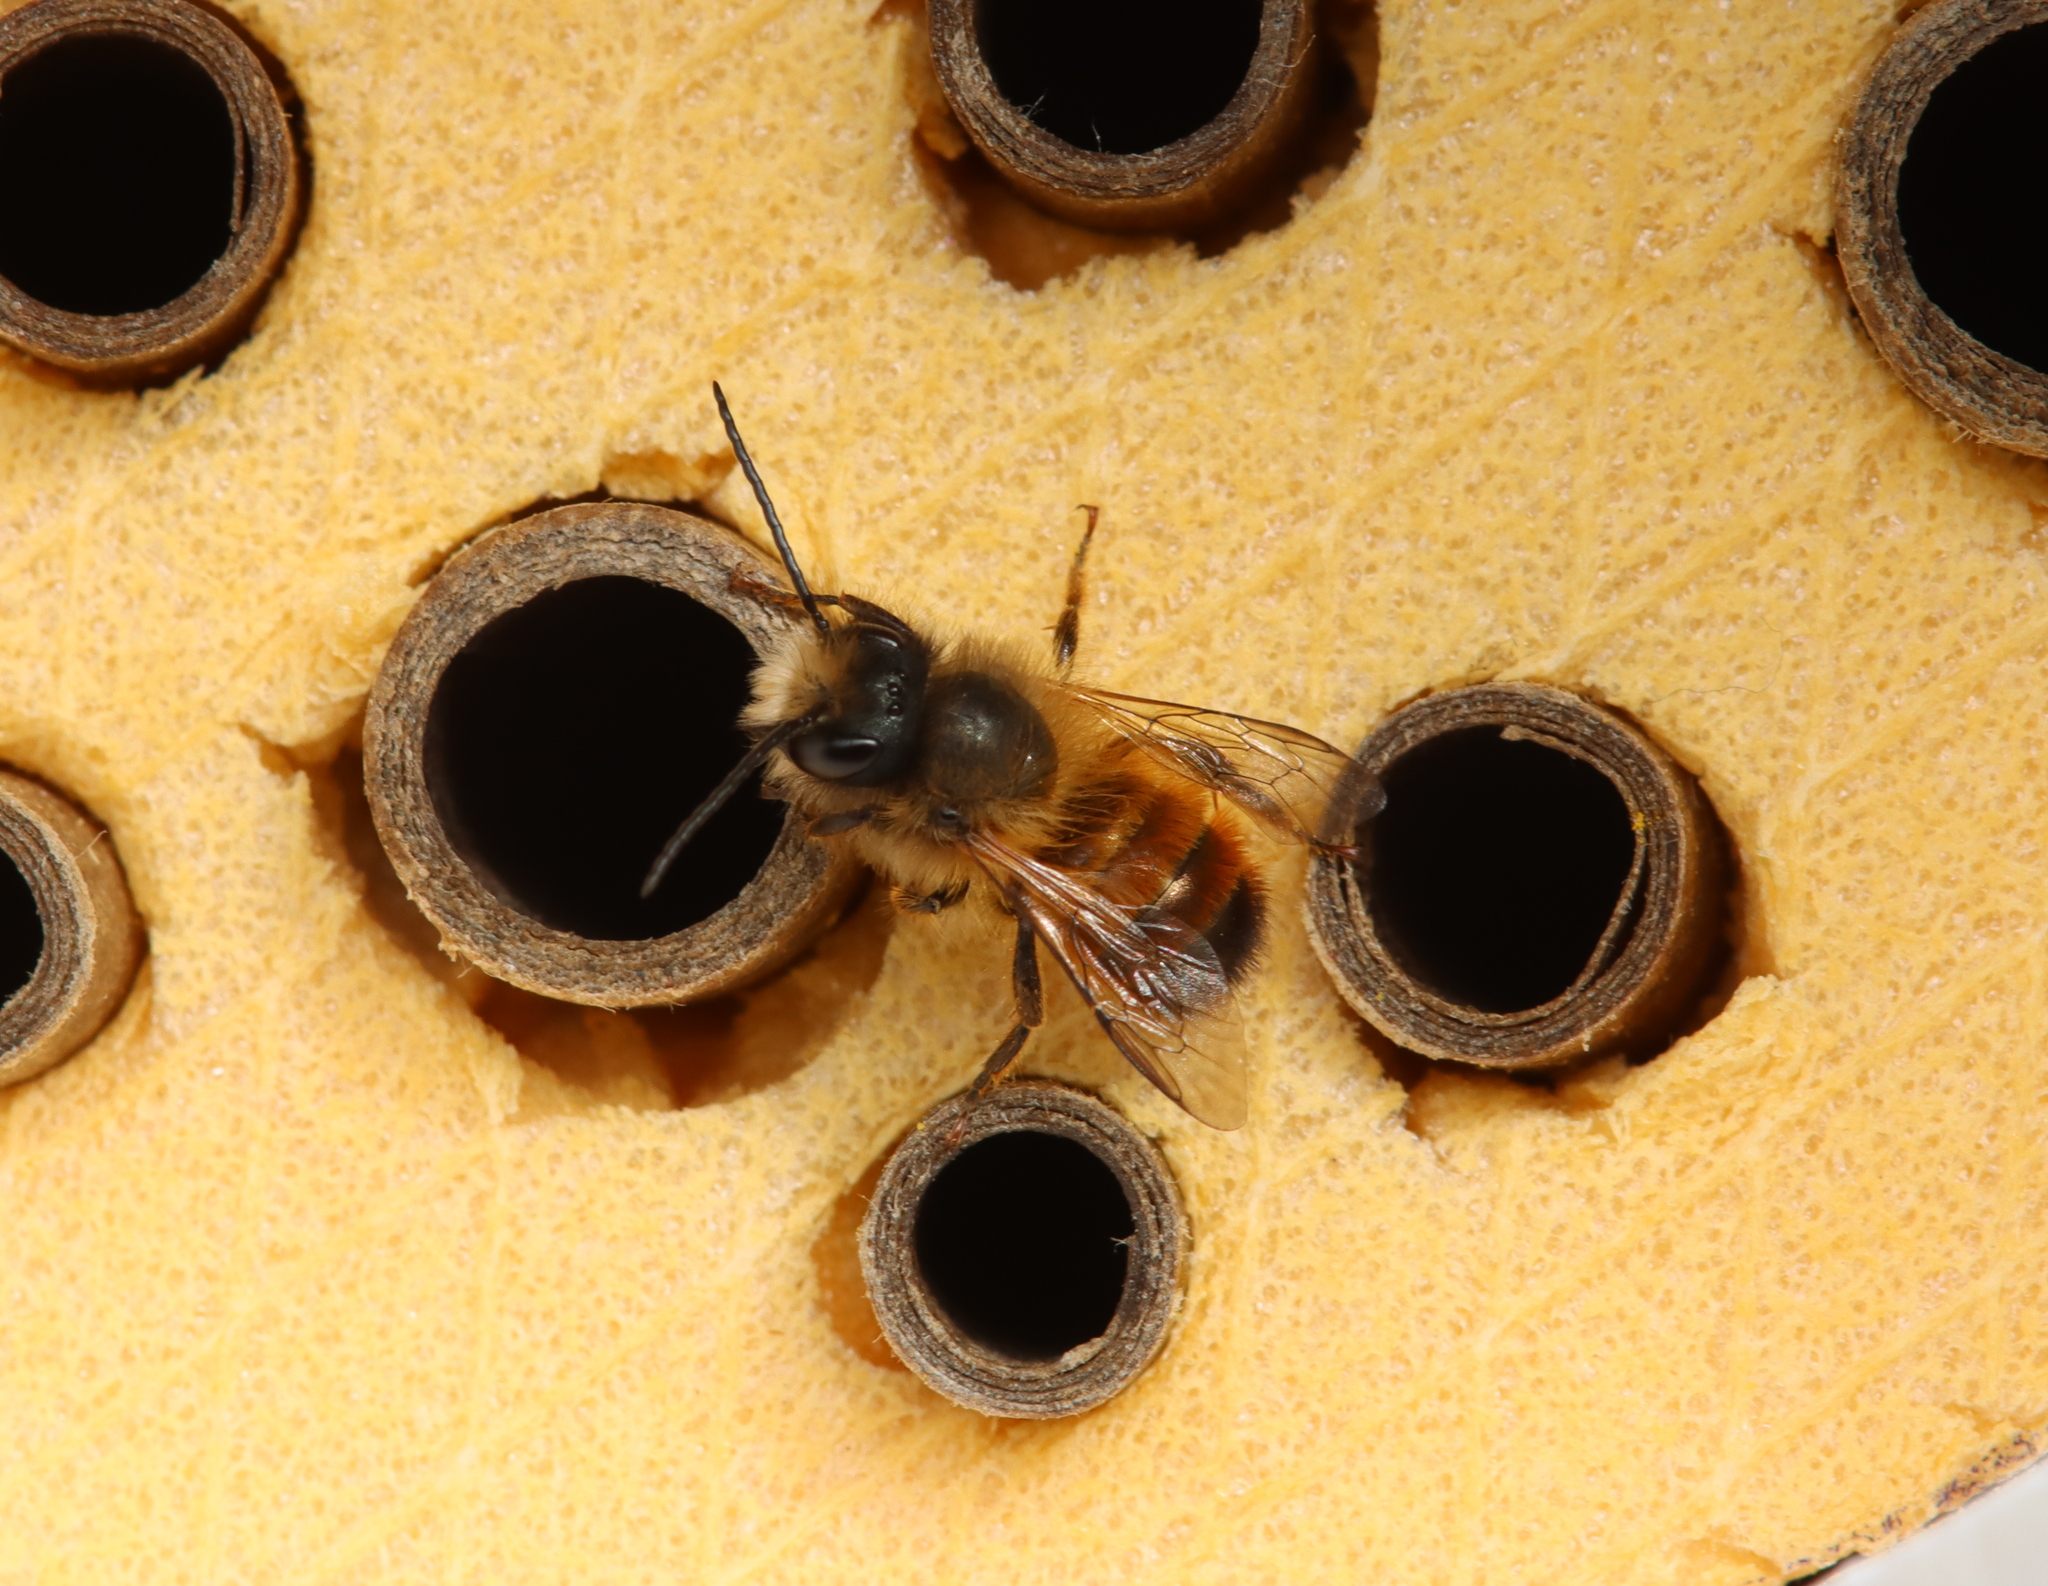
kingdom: Animalia
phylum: Arthropoda
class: Insecta
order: Hymenoptera
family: Megachilidae
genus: Osmia
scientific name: Osmia bicornis
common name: Red mason bee
